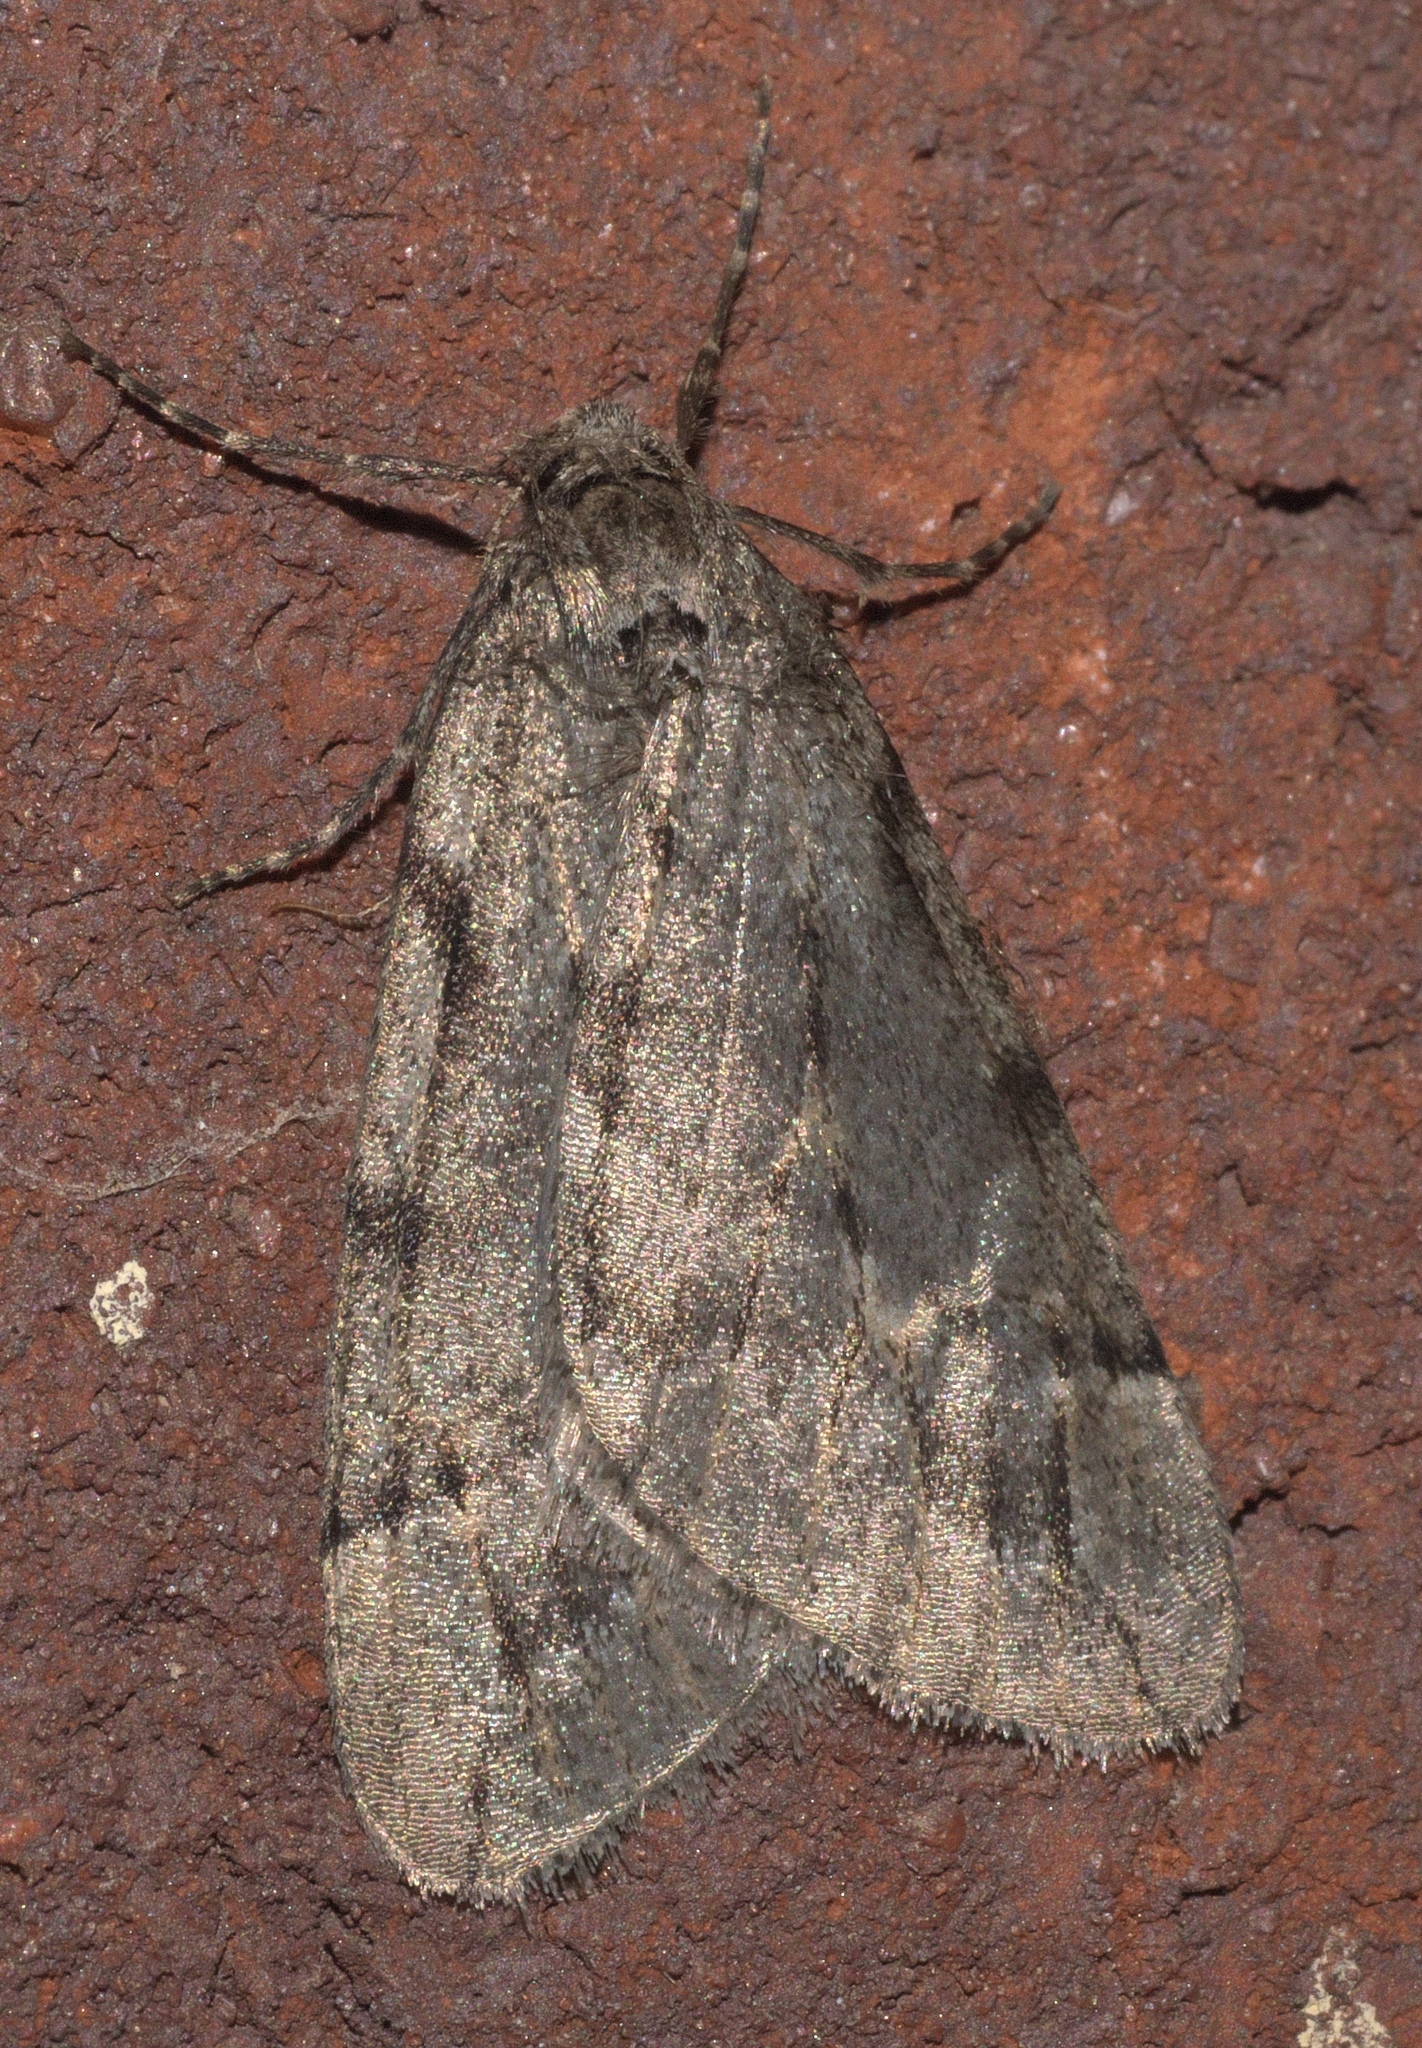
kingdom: Animalia
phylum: Arthropoda
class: Insecta
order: Lepidoptera
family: Geometridae
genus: Paleacrita
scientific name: Paleacrita vernata
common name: Spring cankerworm
